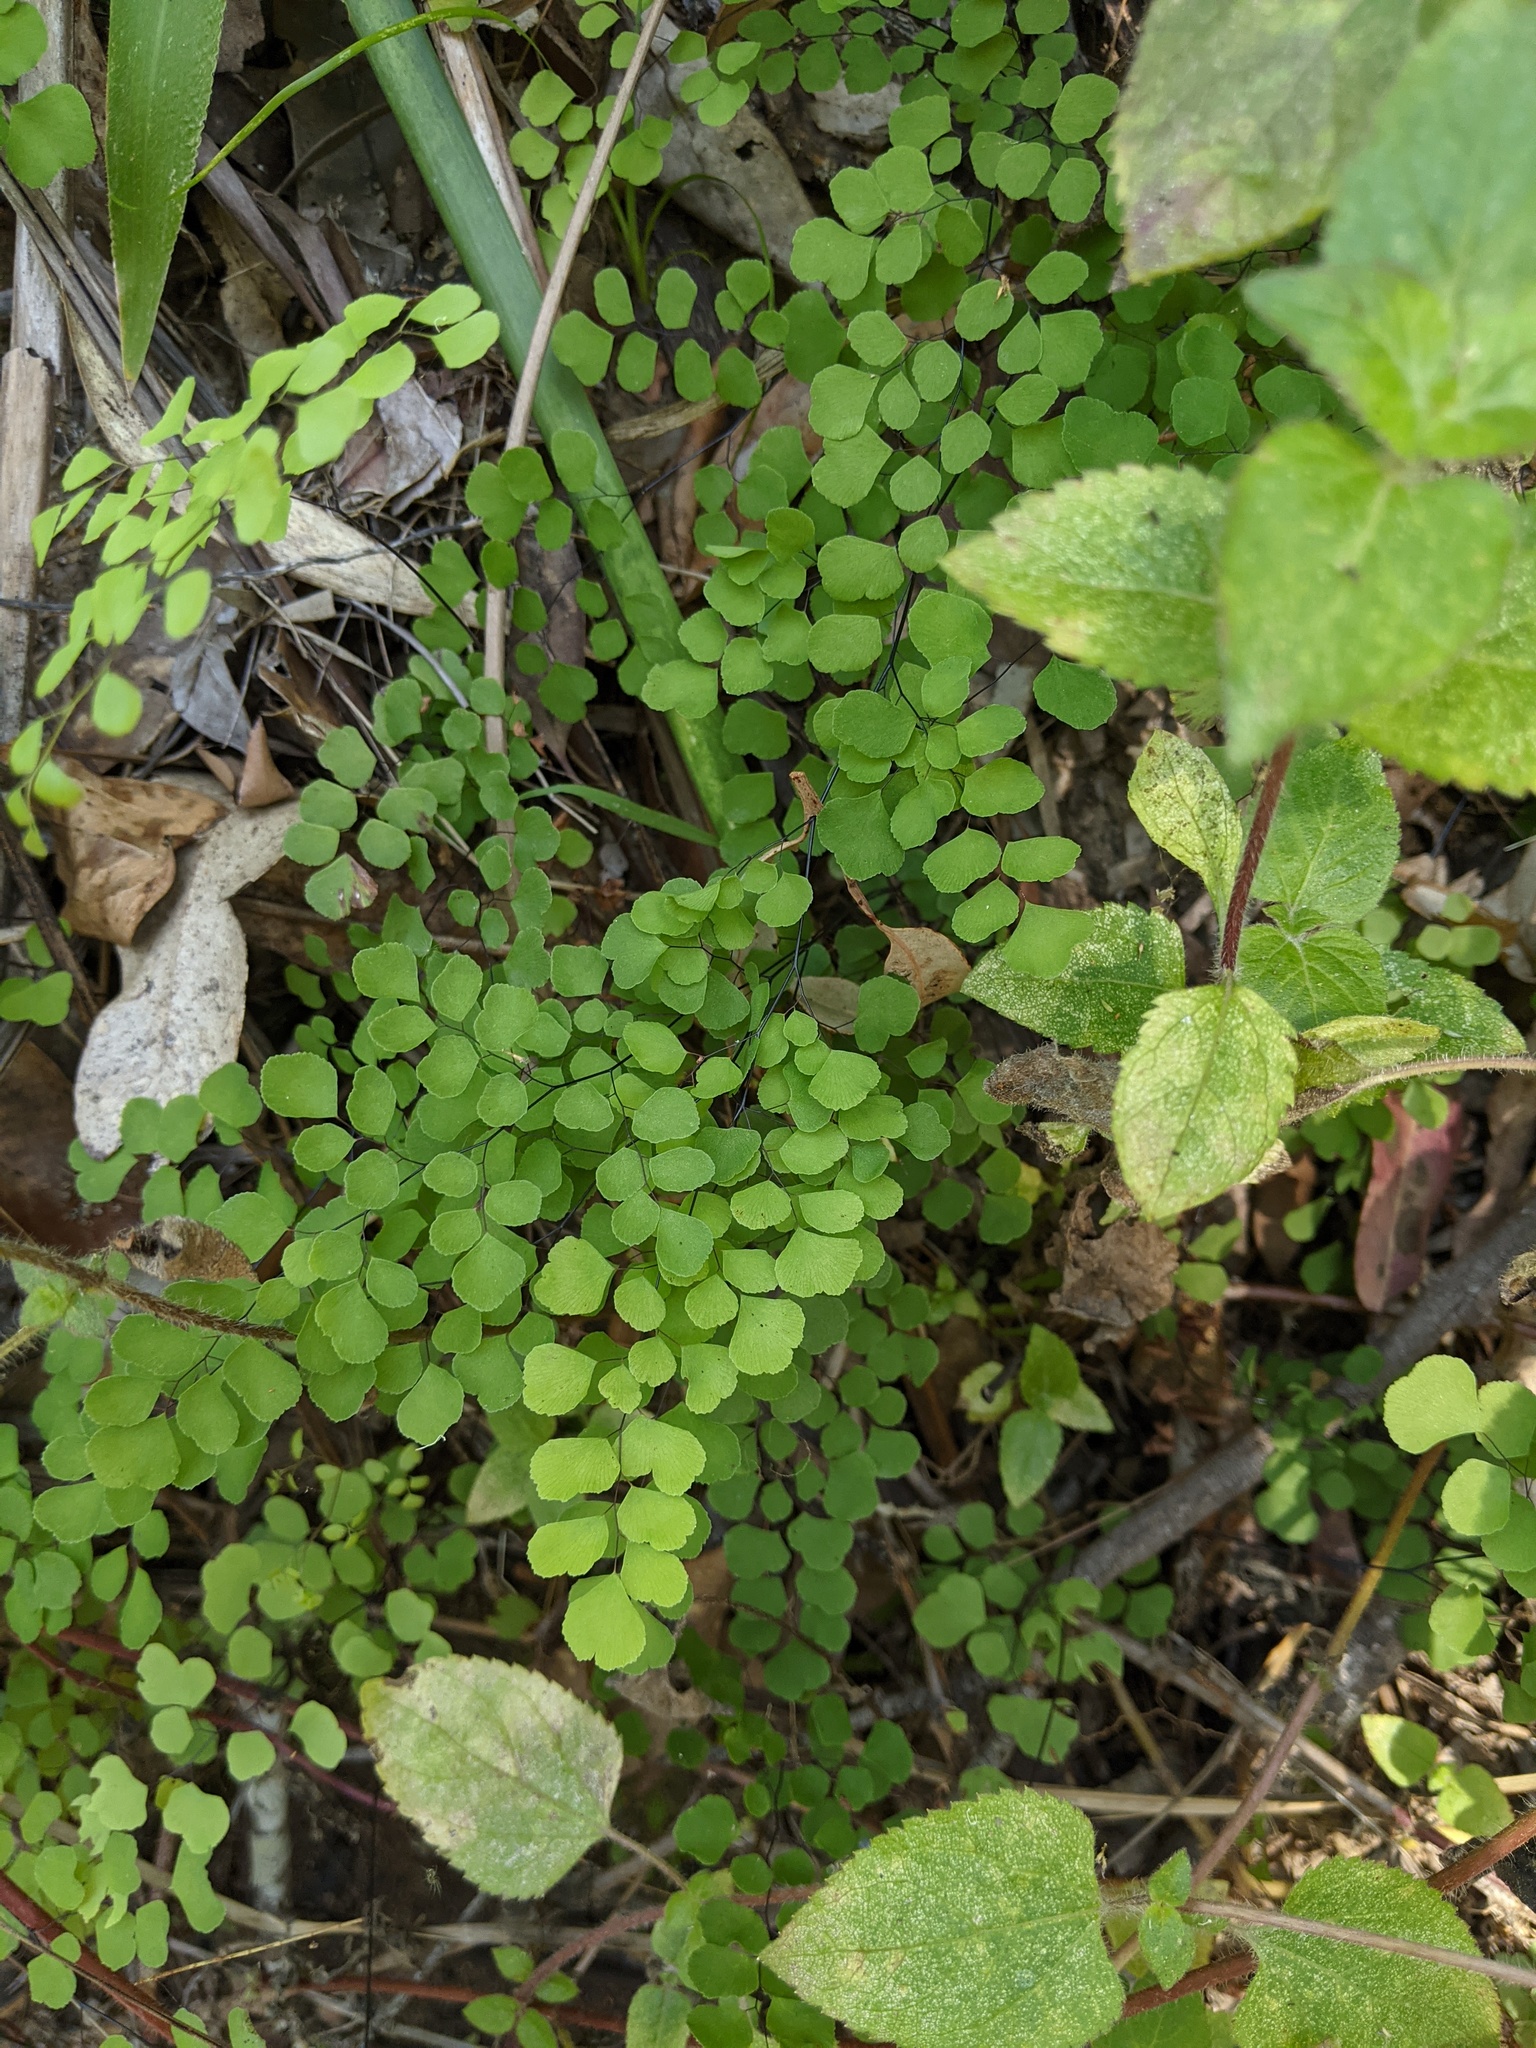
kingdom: Plantae
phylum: Tracheophyta
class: Polypodiopsida
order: Polypodiales
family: Pteridaceae
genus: Adiantum
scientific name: Adiantum aethiopicum
